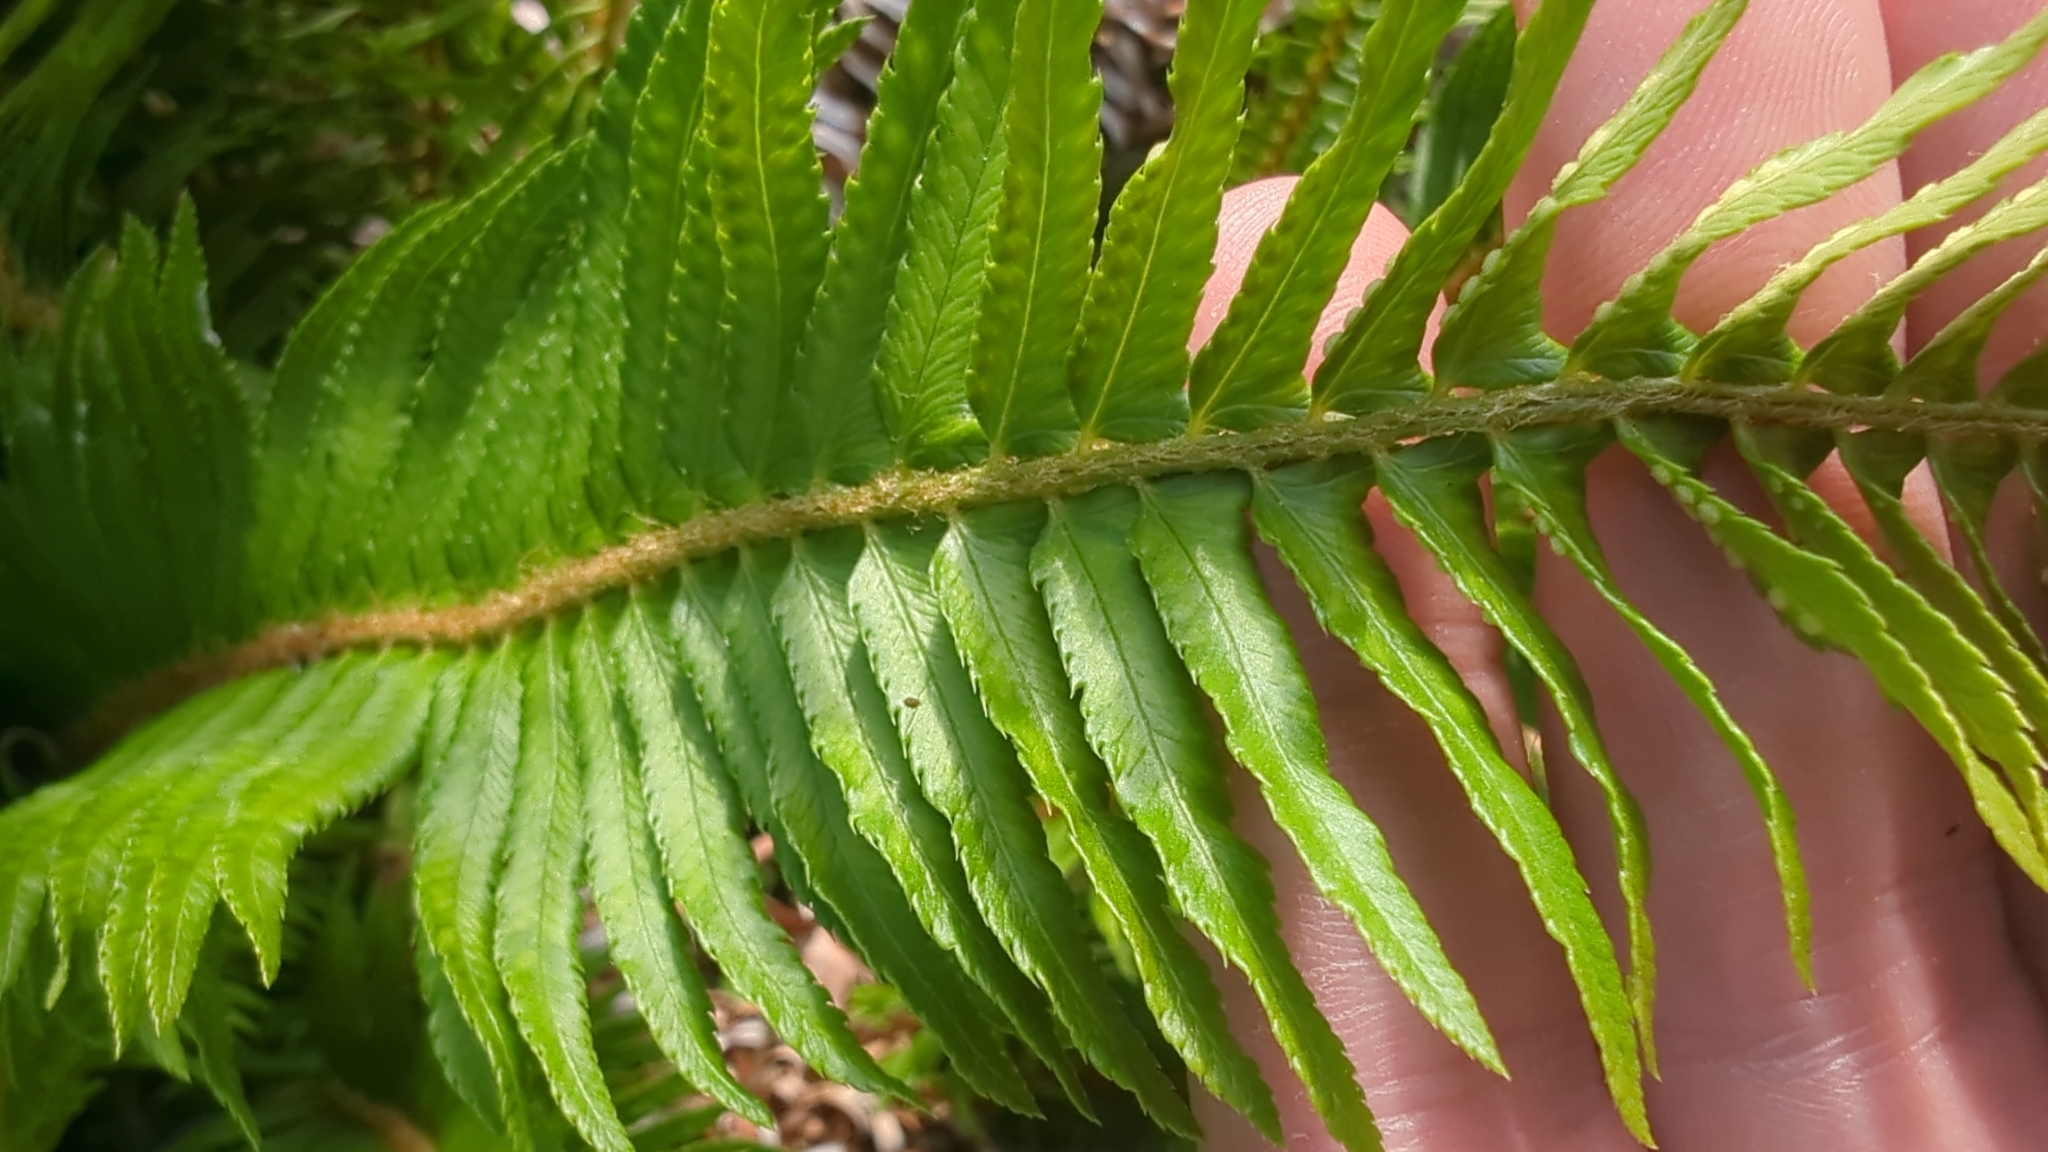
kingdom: Plantae
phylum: Tracheophyta
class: Polypodiopsida
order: Polypodiales
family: Dryopteridaceae
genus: Polystichum
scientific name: Polystichum munitum
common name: Western sword-fern
